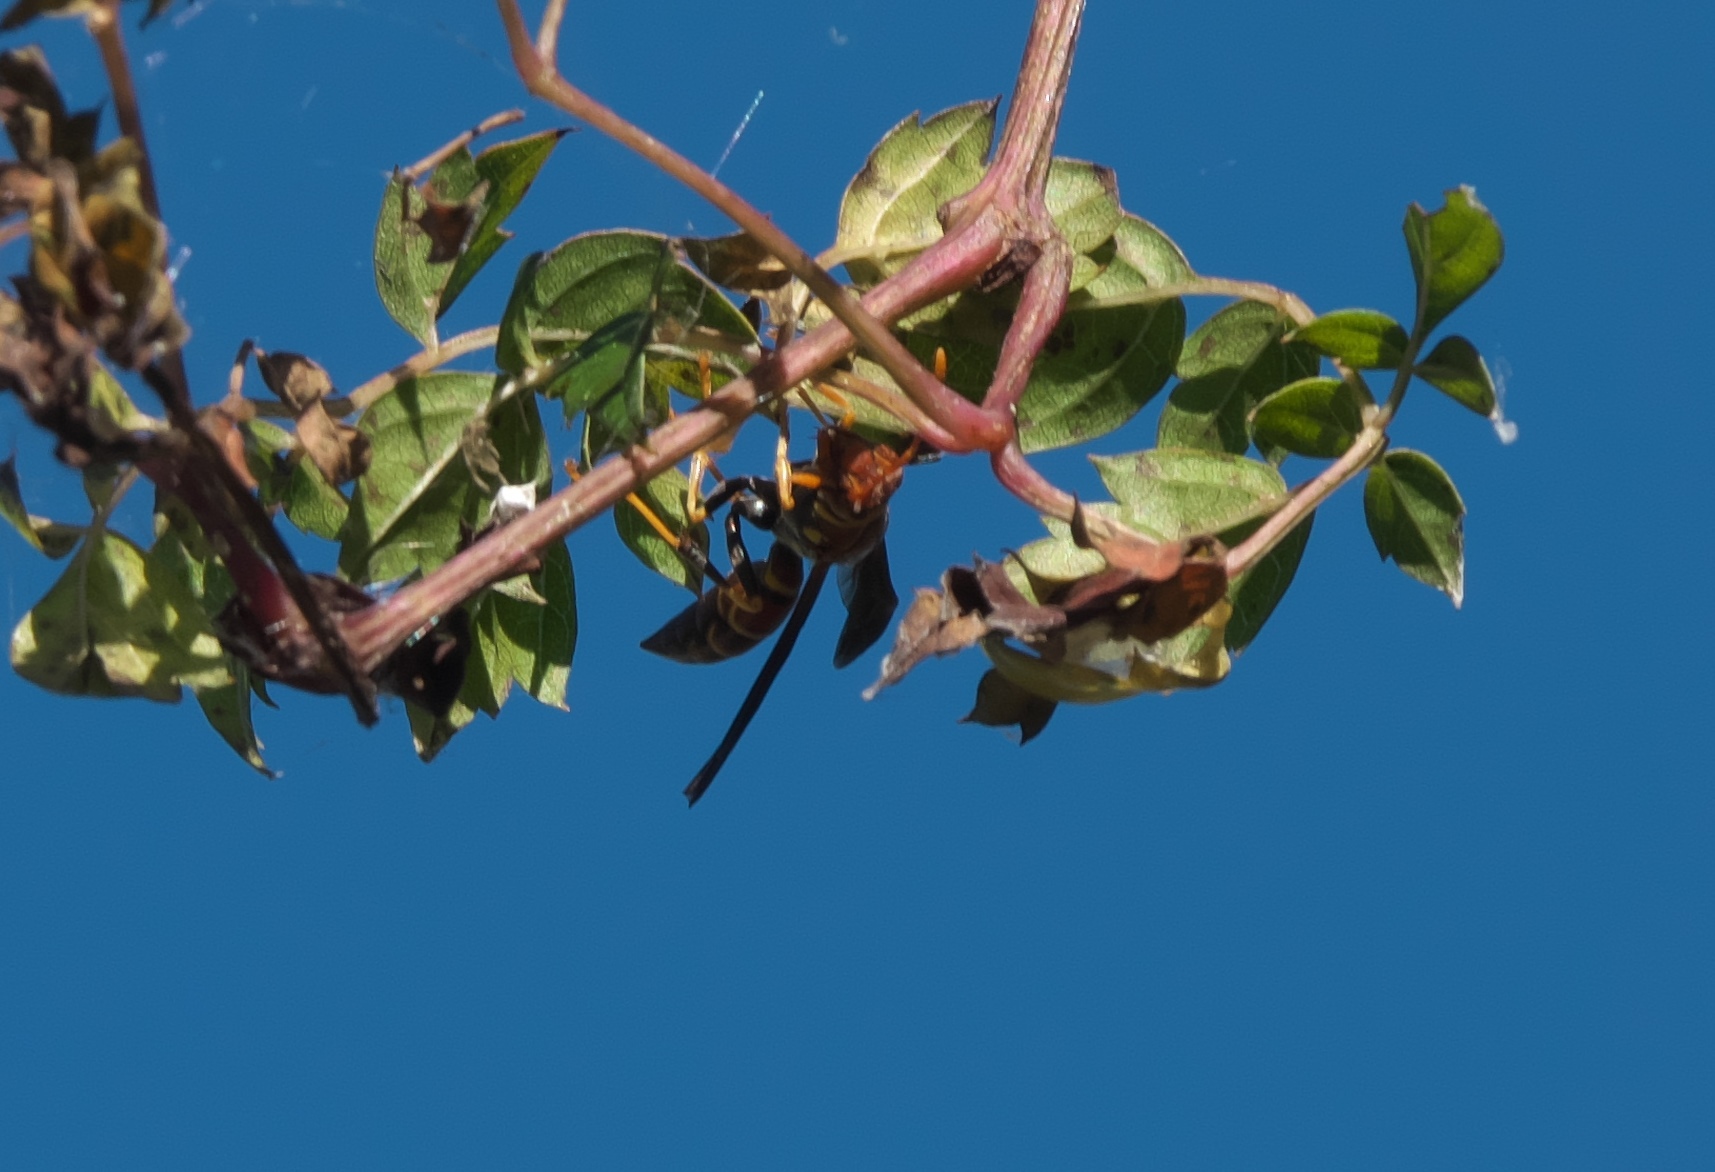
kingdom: Animalia
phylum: Arthropoda
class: Insecta
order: Hymenoptera
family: Eumenidae
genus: Polistes
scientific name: Polistes bahamensis
